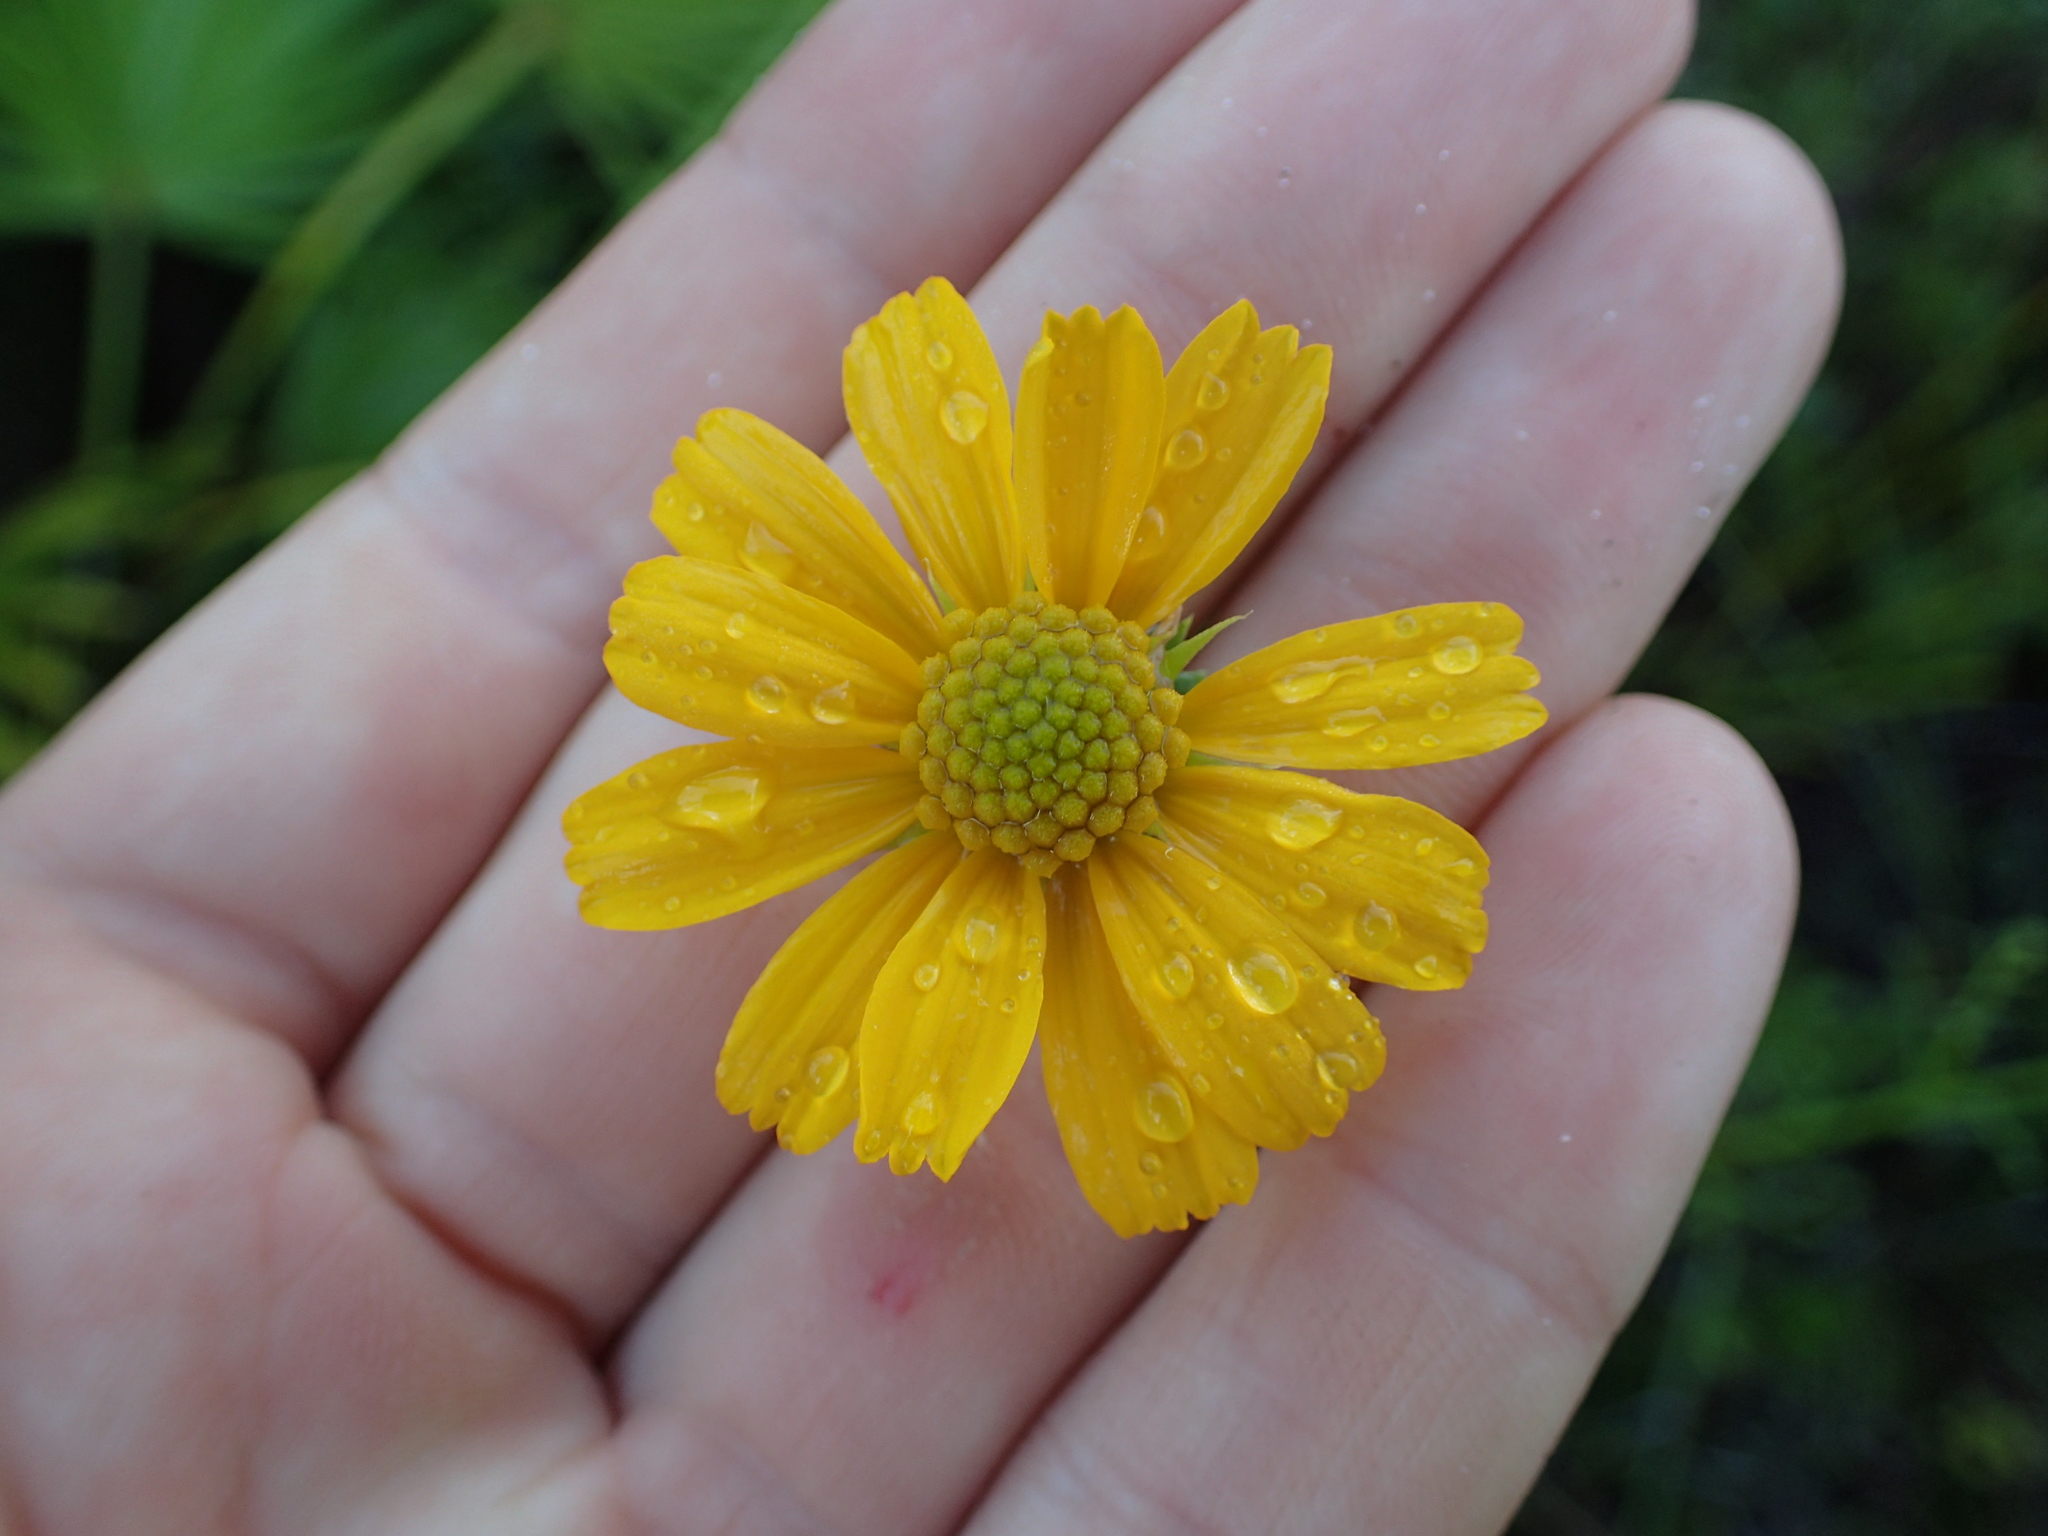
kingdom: Plantae
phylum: Tracheophyta
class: Magnoliopsida
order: Asterales
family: Asteraceae
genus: Balduina
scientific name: Balduina angustifolia
